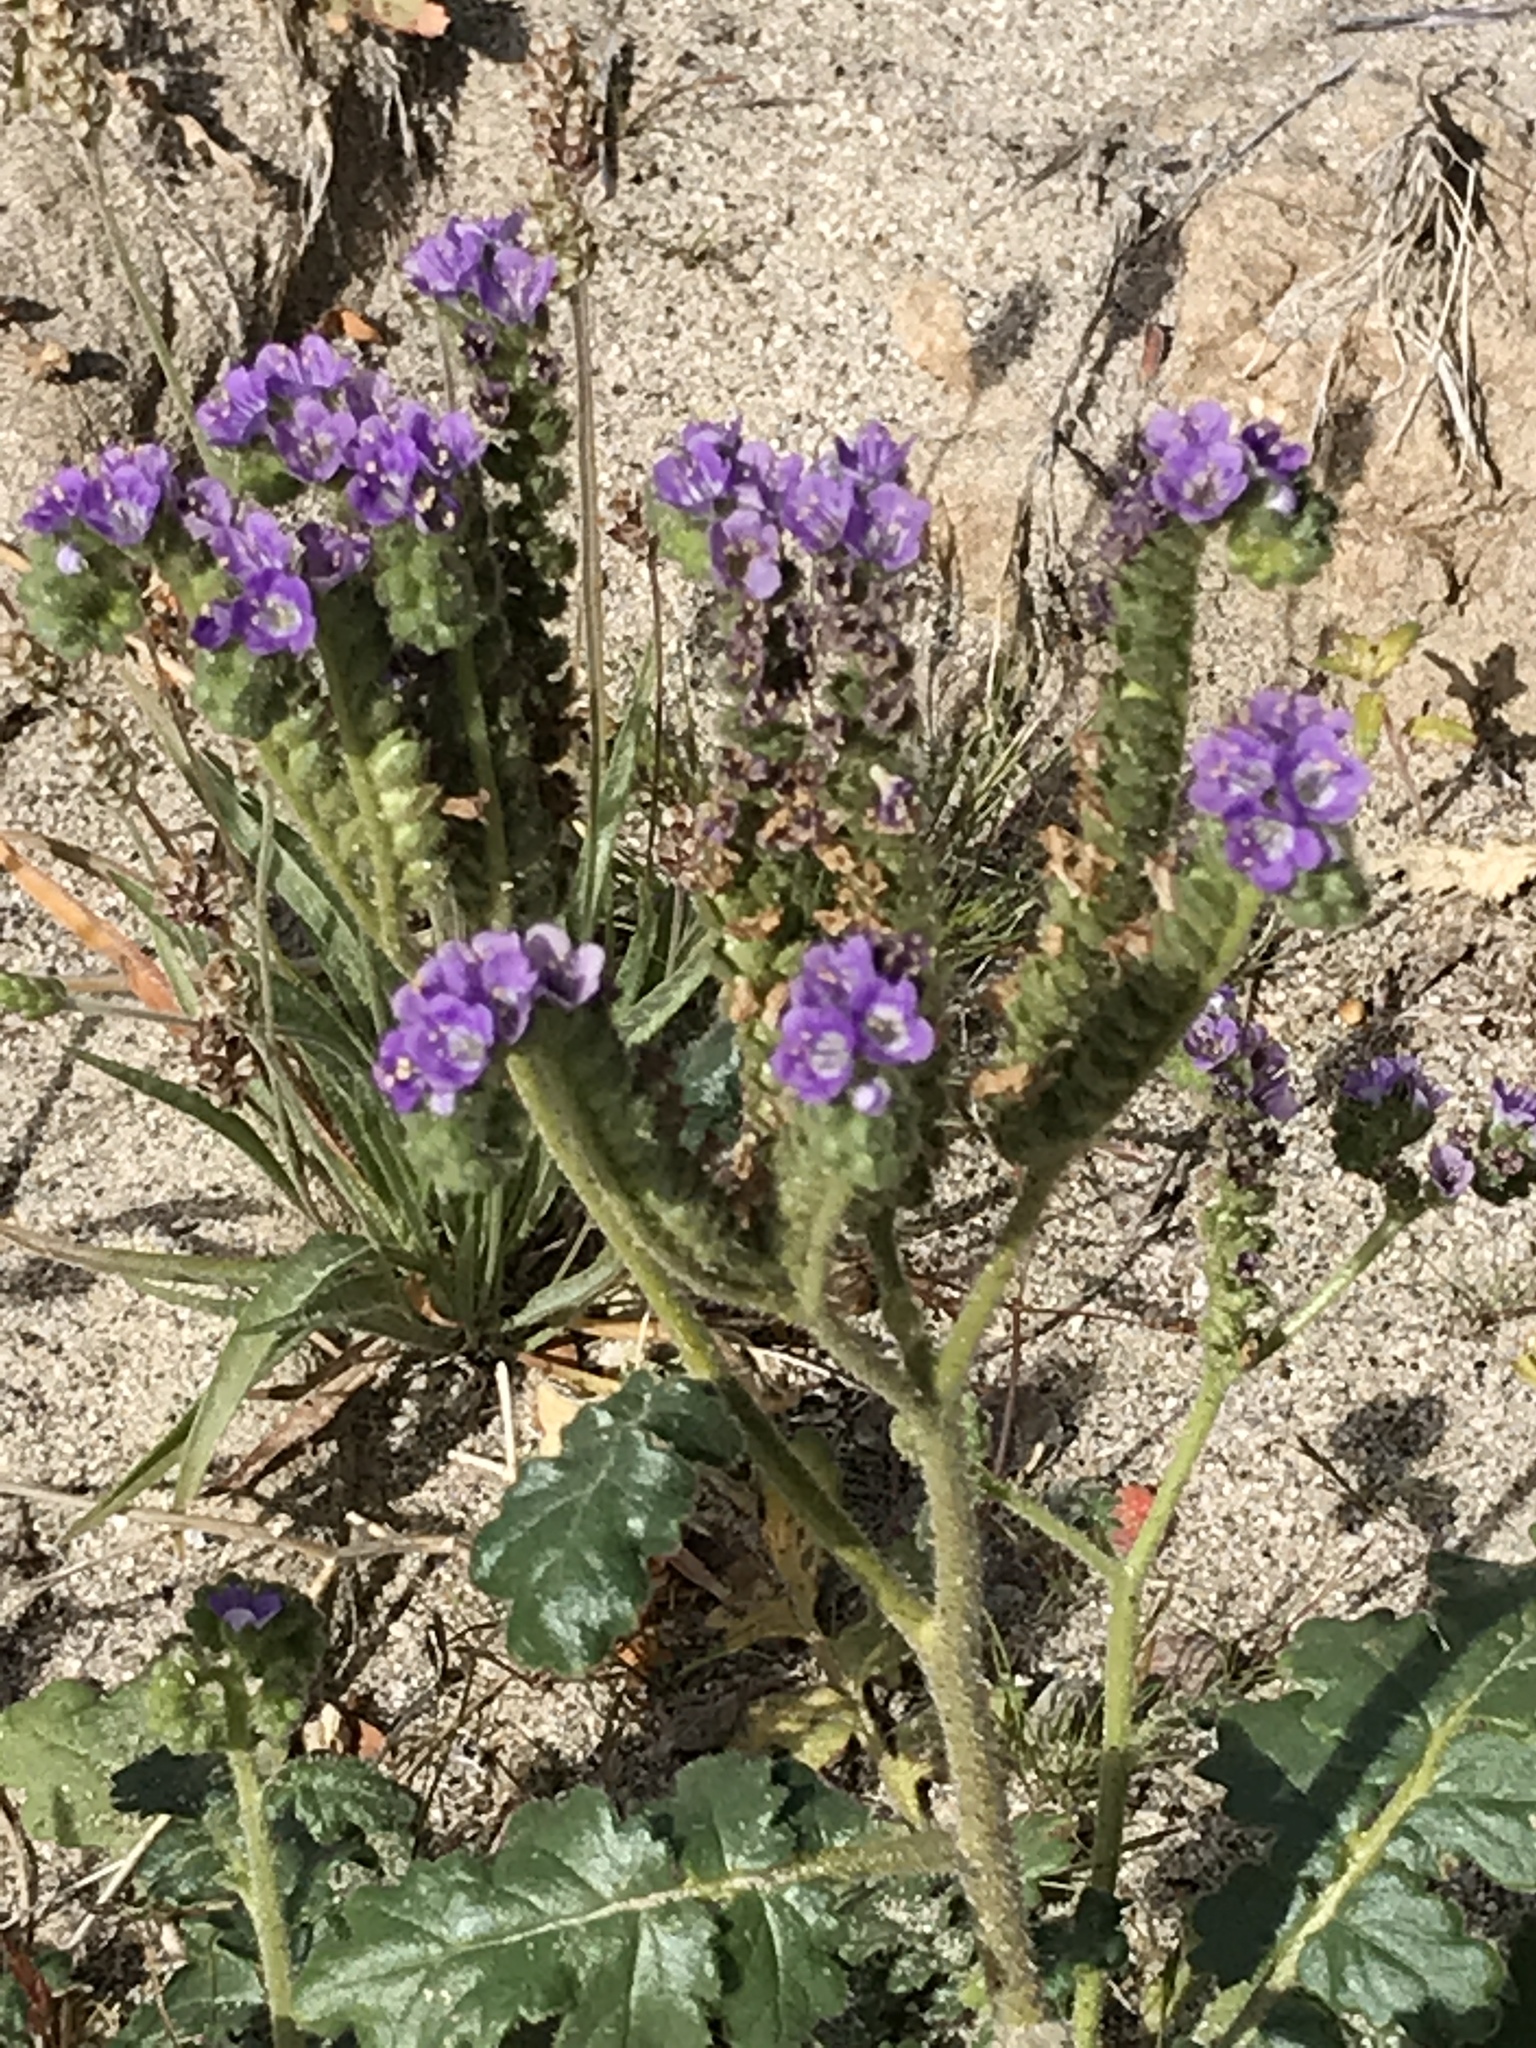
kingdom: Plantae
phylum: Tracheophyta
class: Magnoliopsida
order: Boraginales
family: Hydrophyllaceae
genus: Phacelia
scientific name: Phacelia crenulata
